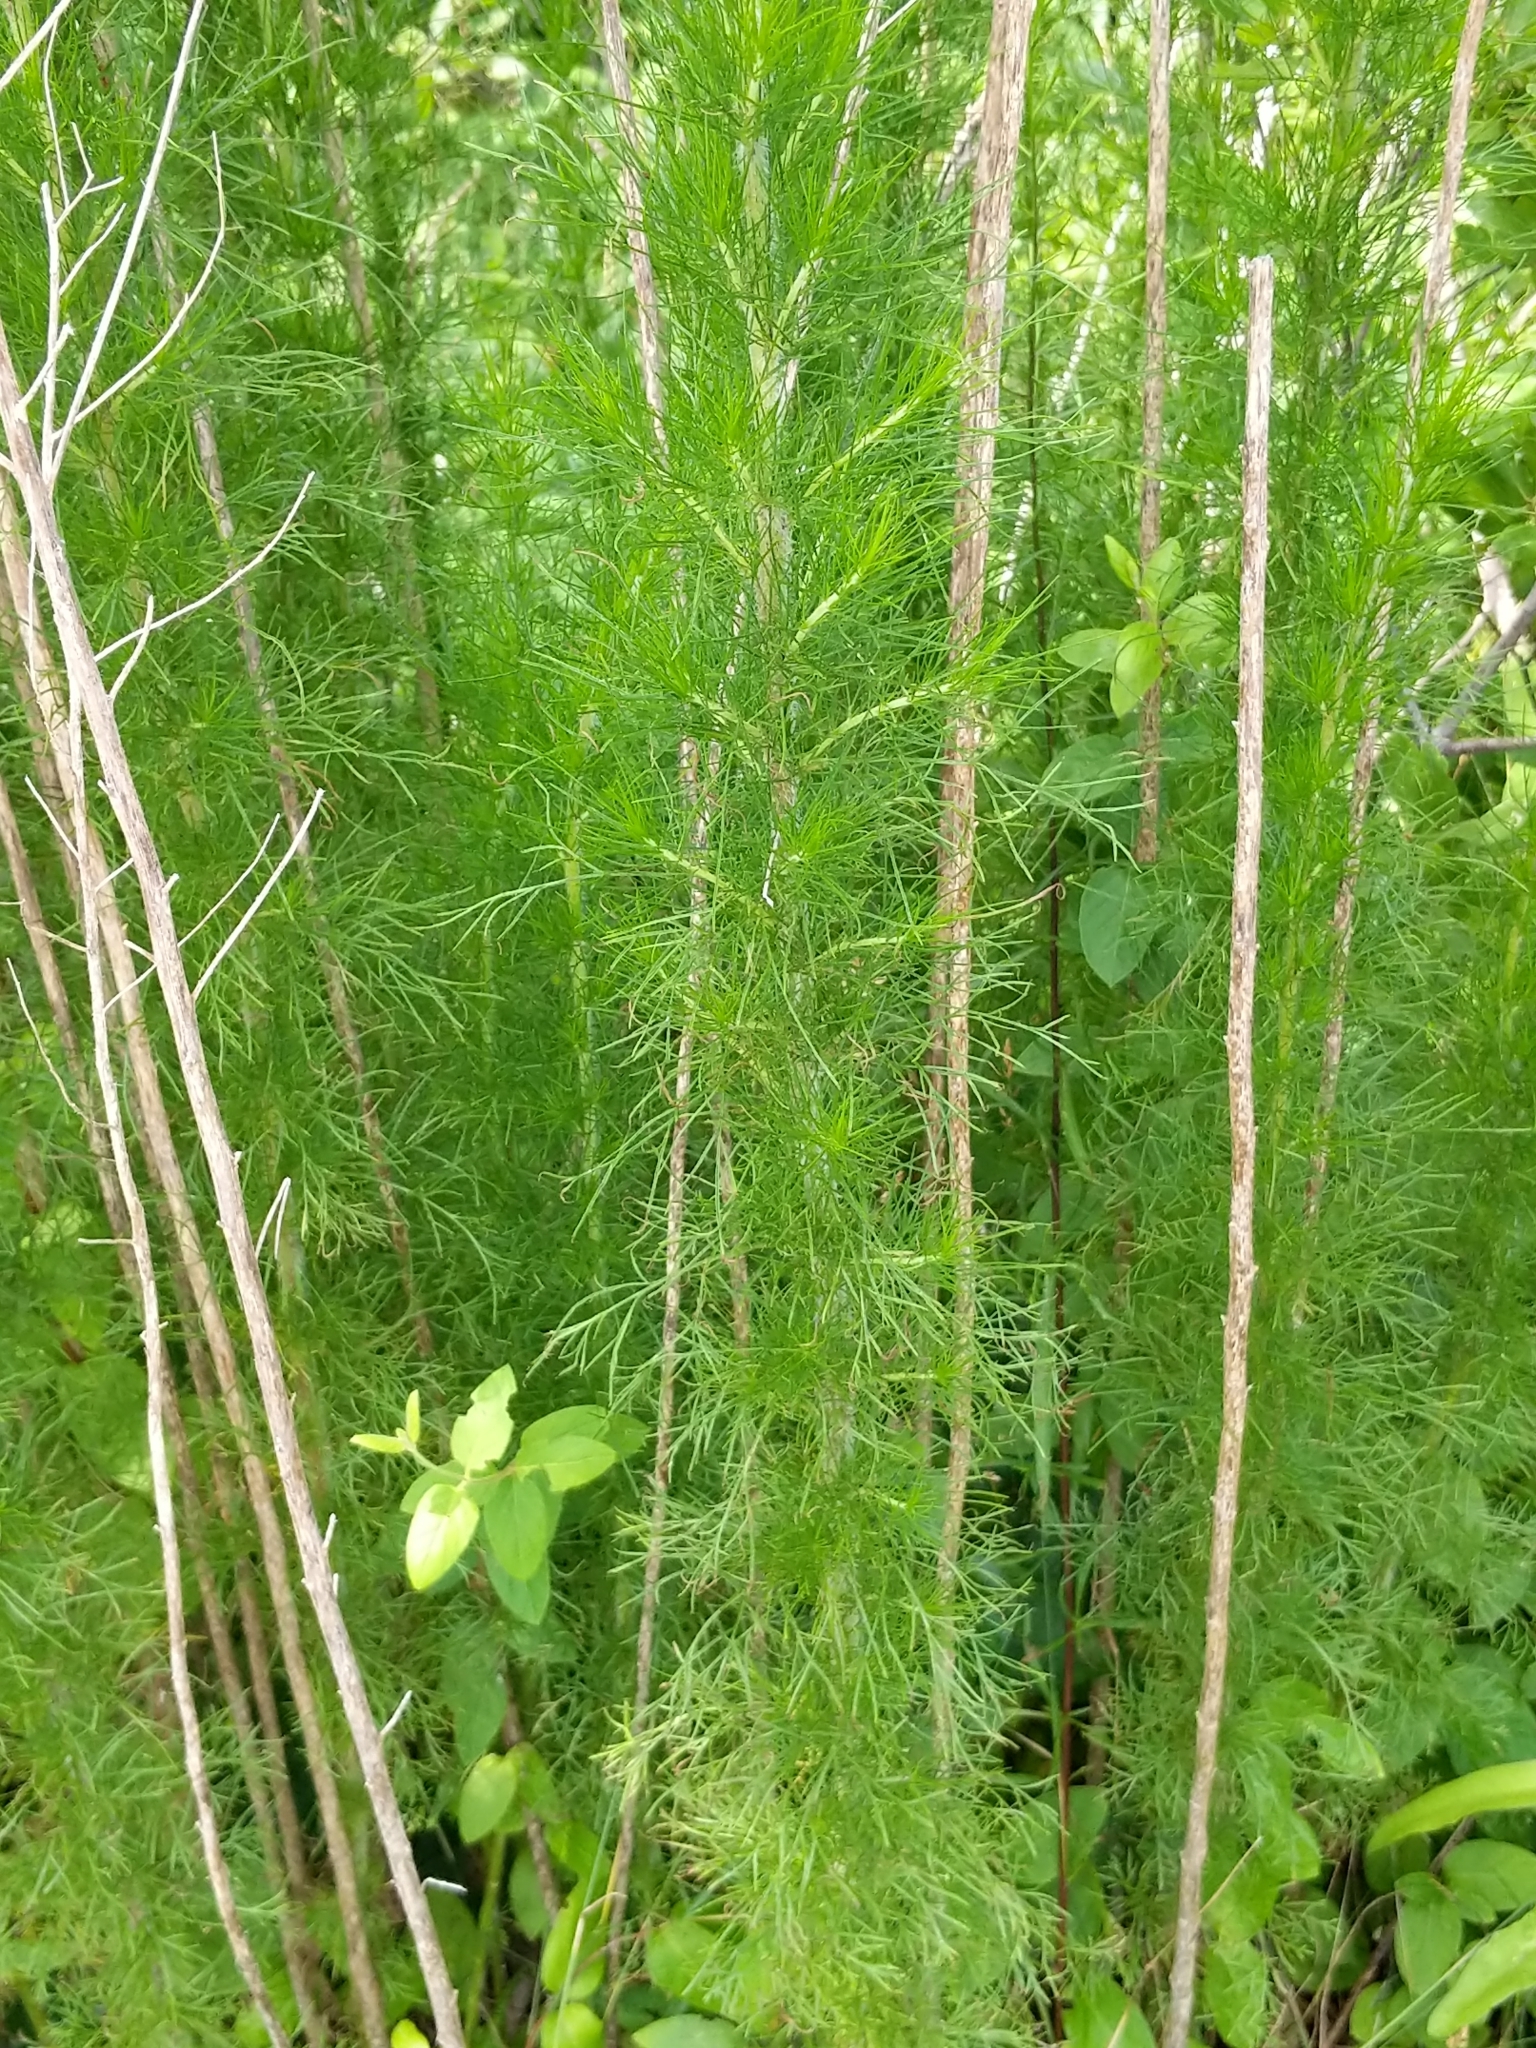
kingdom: Plantae
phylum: Tracheophyta
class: Magnoliopsida
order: Asterales
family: Asteraceae
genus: Eupatorium
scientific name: Eupatorium capillifolium
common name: Dog-fennel
